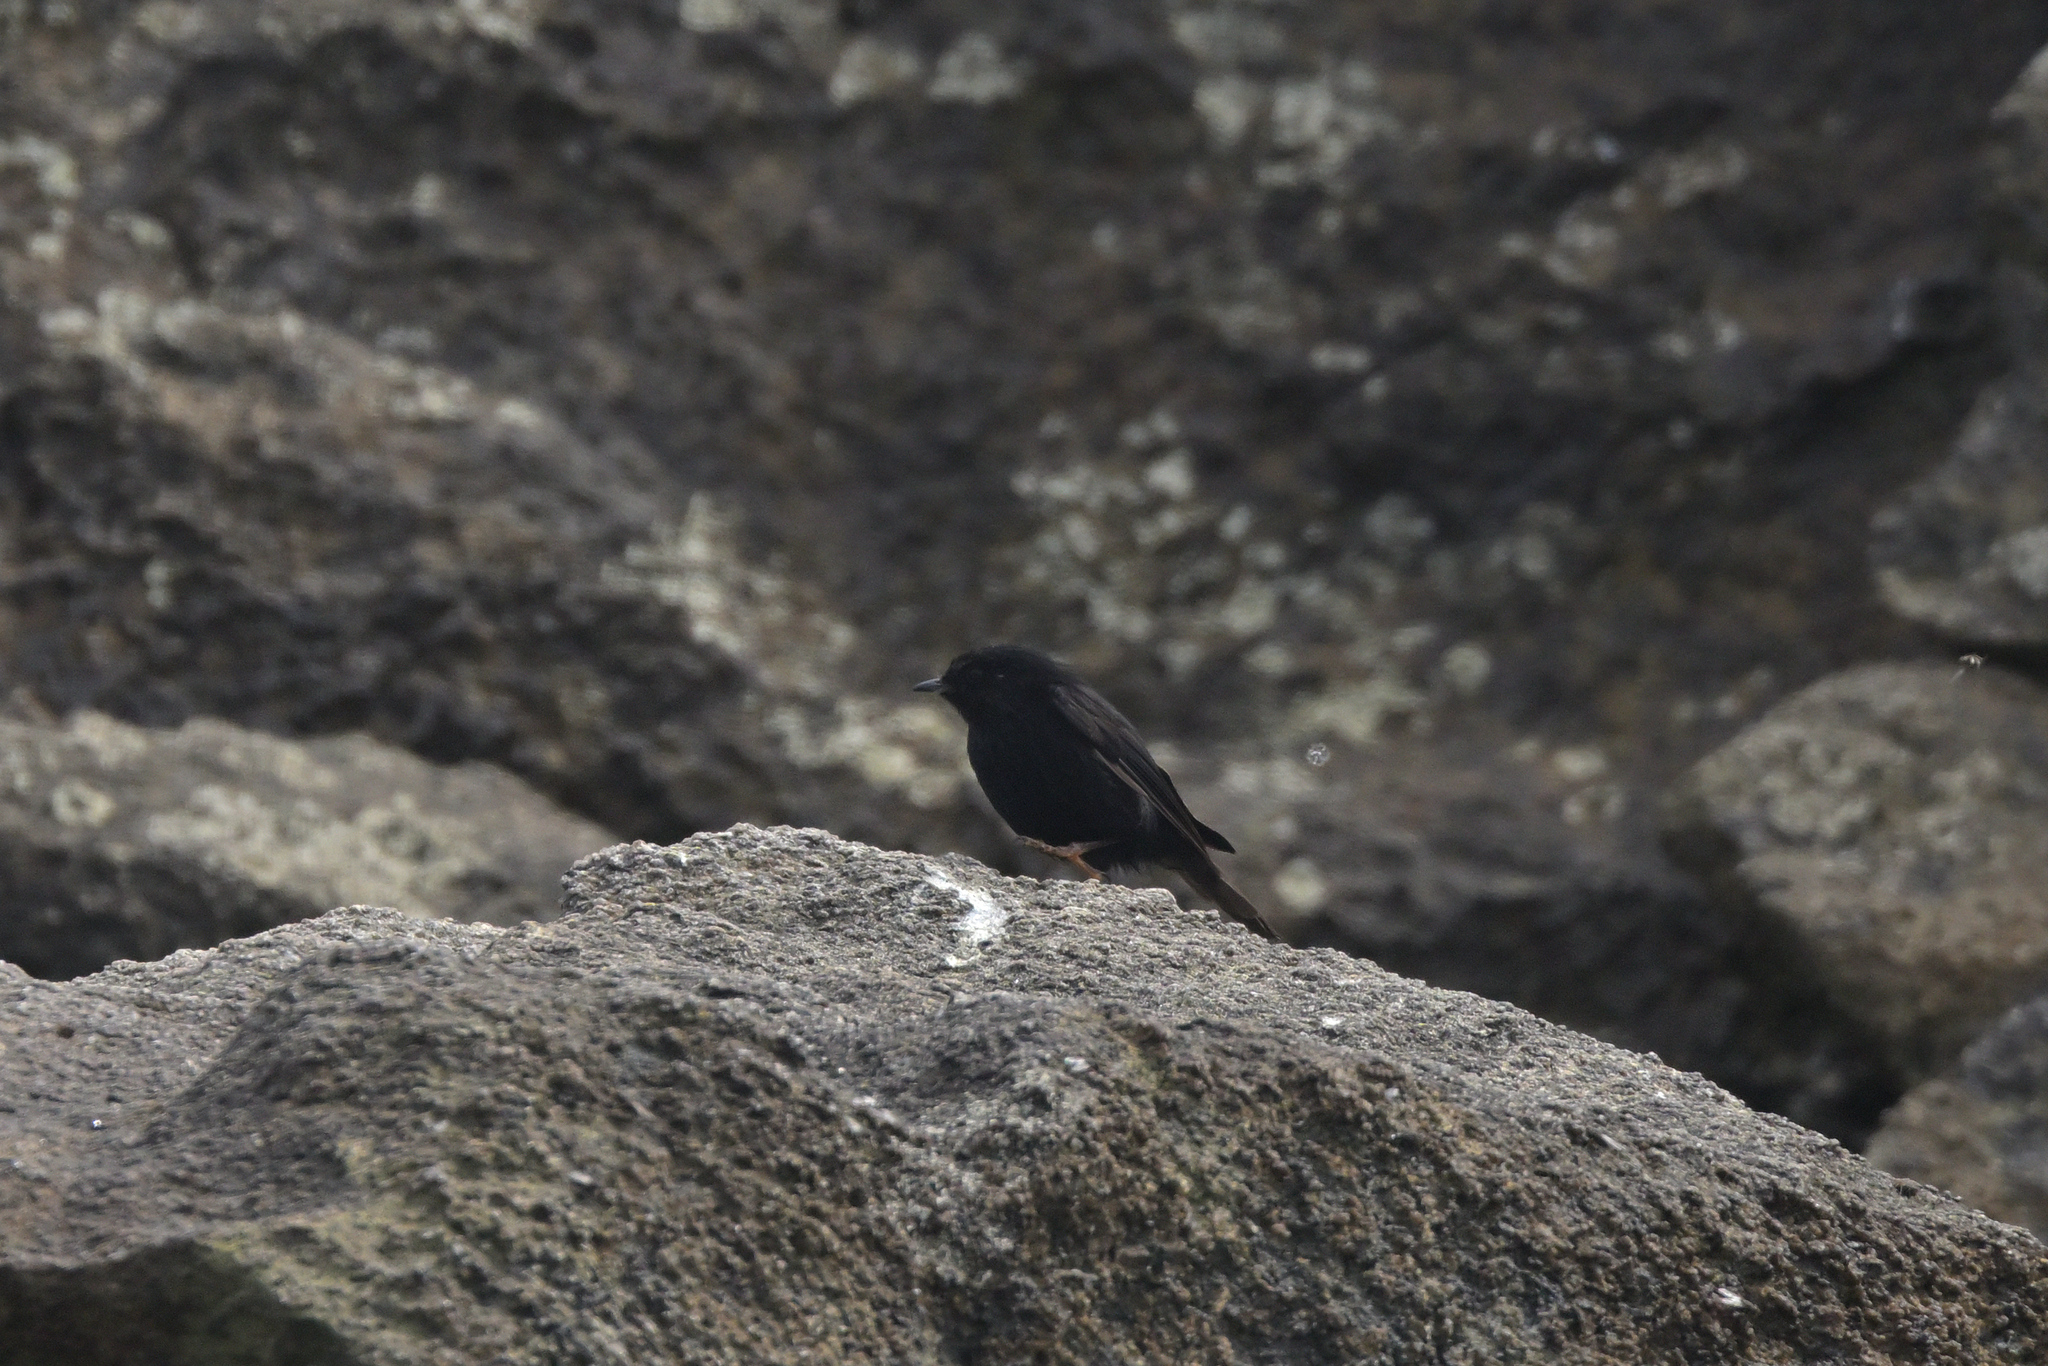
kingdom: Animalia
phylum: Chordata
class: Aves
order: Passeriformes
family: Petroicidae
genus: Petroica
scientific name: Petroica macrocephala
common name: Tomtit
